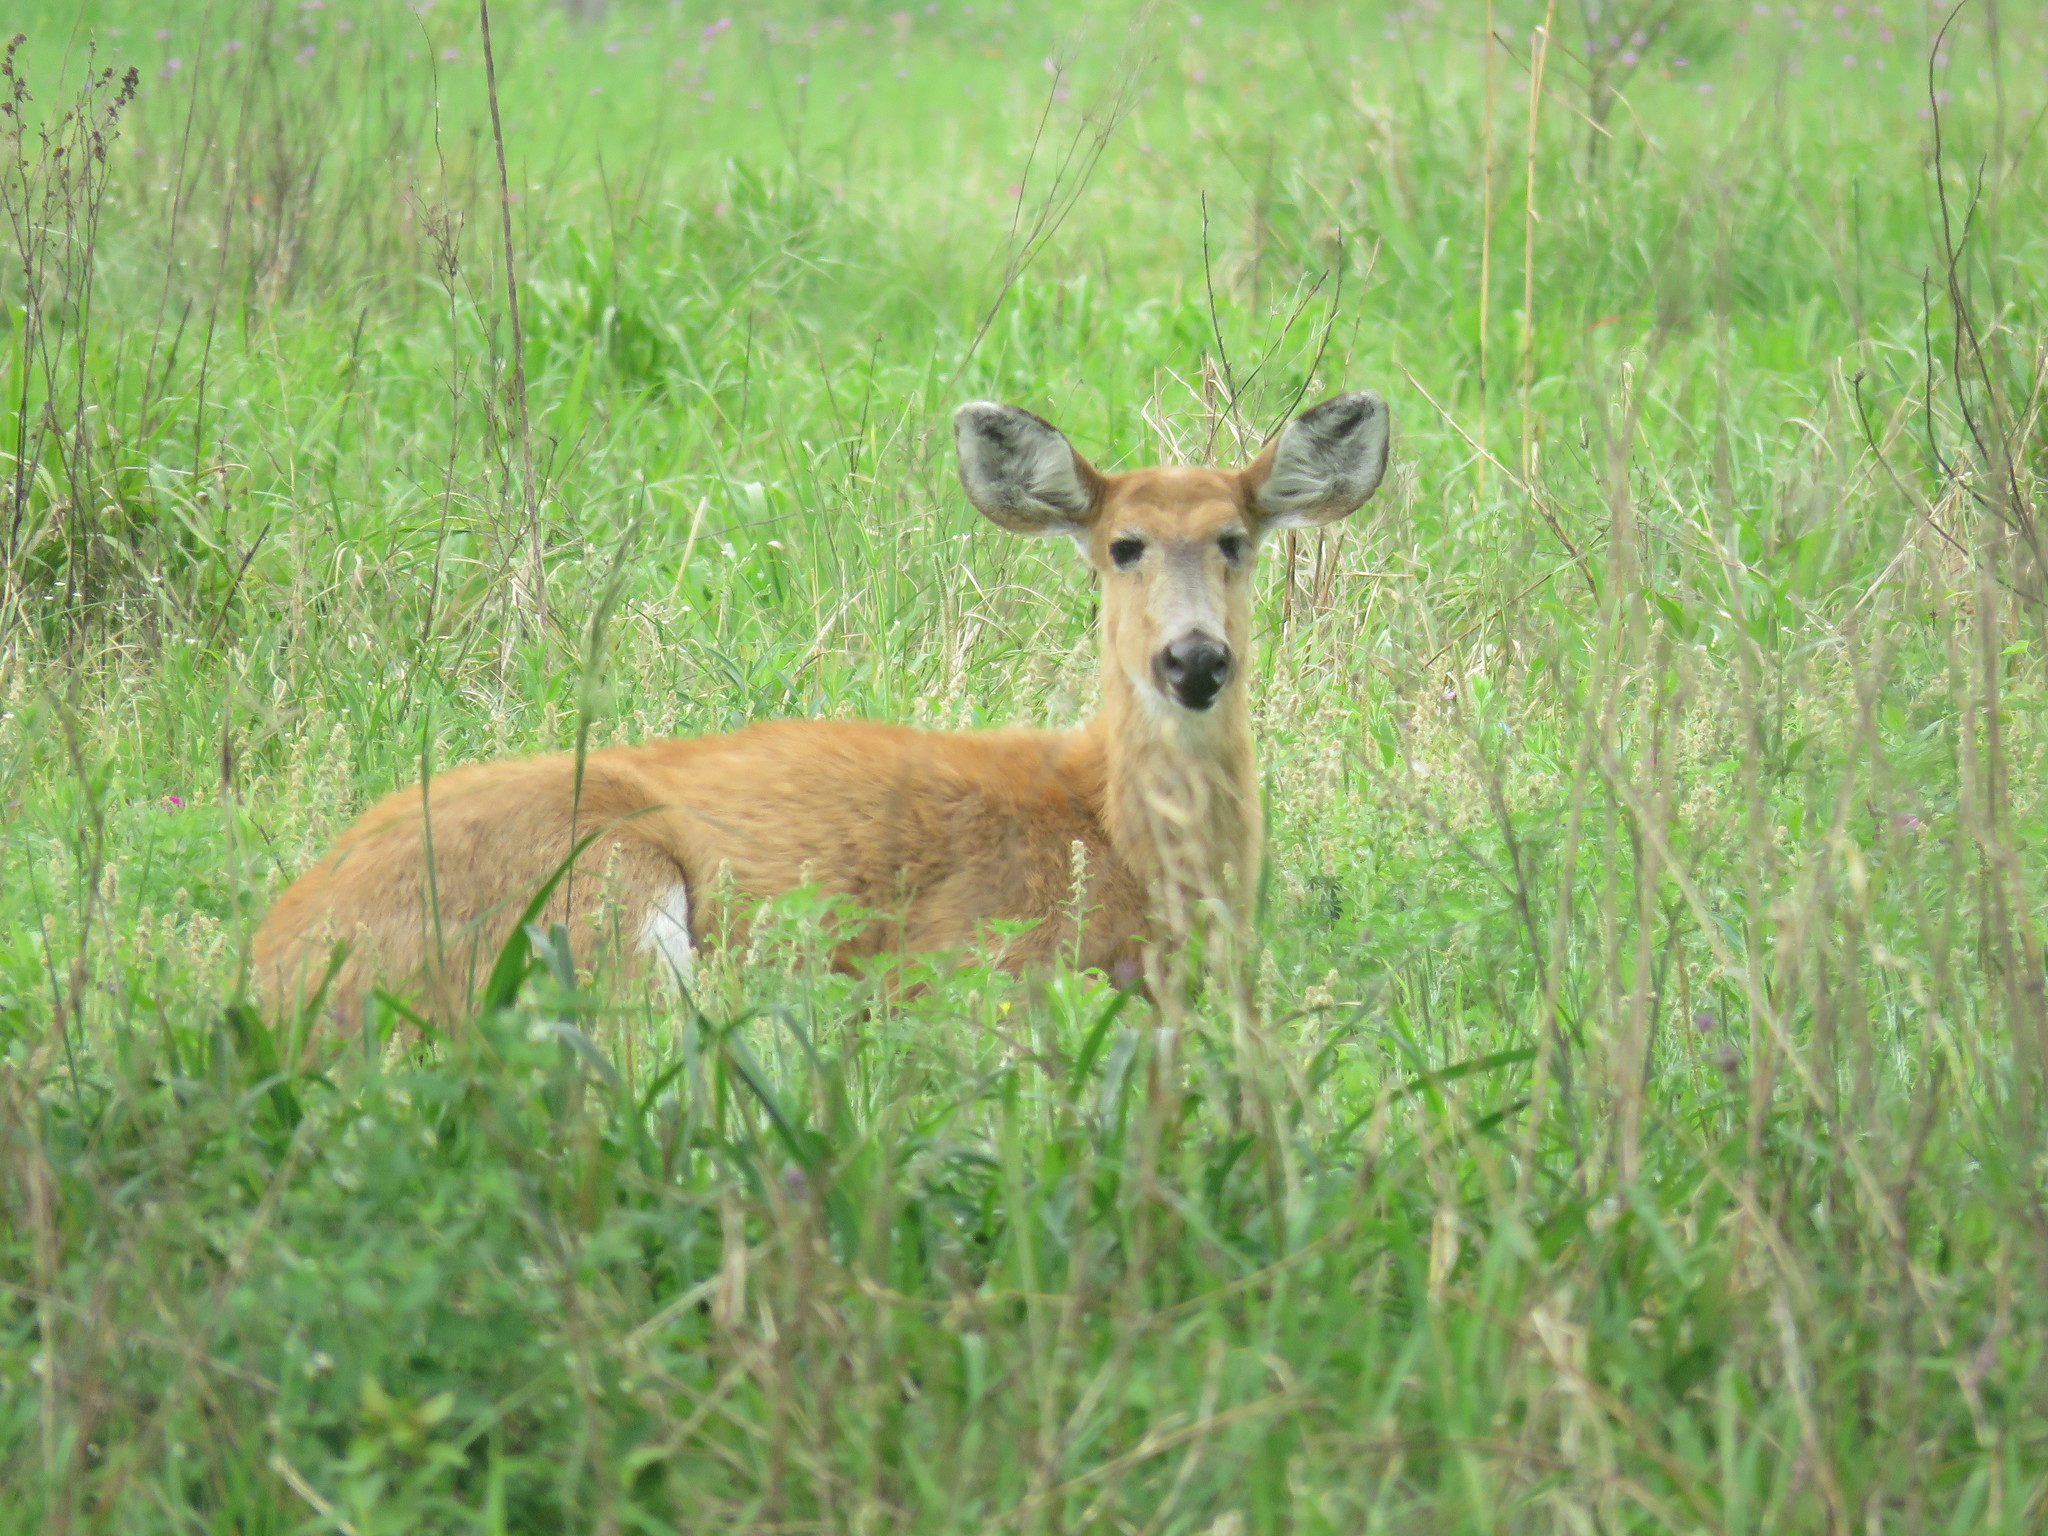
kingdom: Animalia
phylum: Chordata
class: Mammalia
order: Artiodactyla
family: Cervidae
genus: Blastocerus
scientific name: Blastocerus dichotomus
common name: Marsh deer
